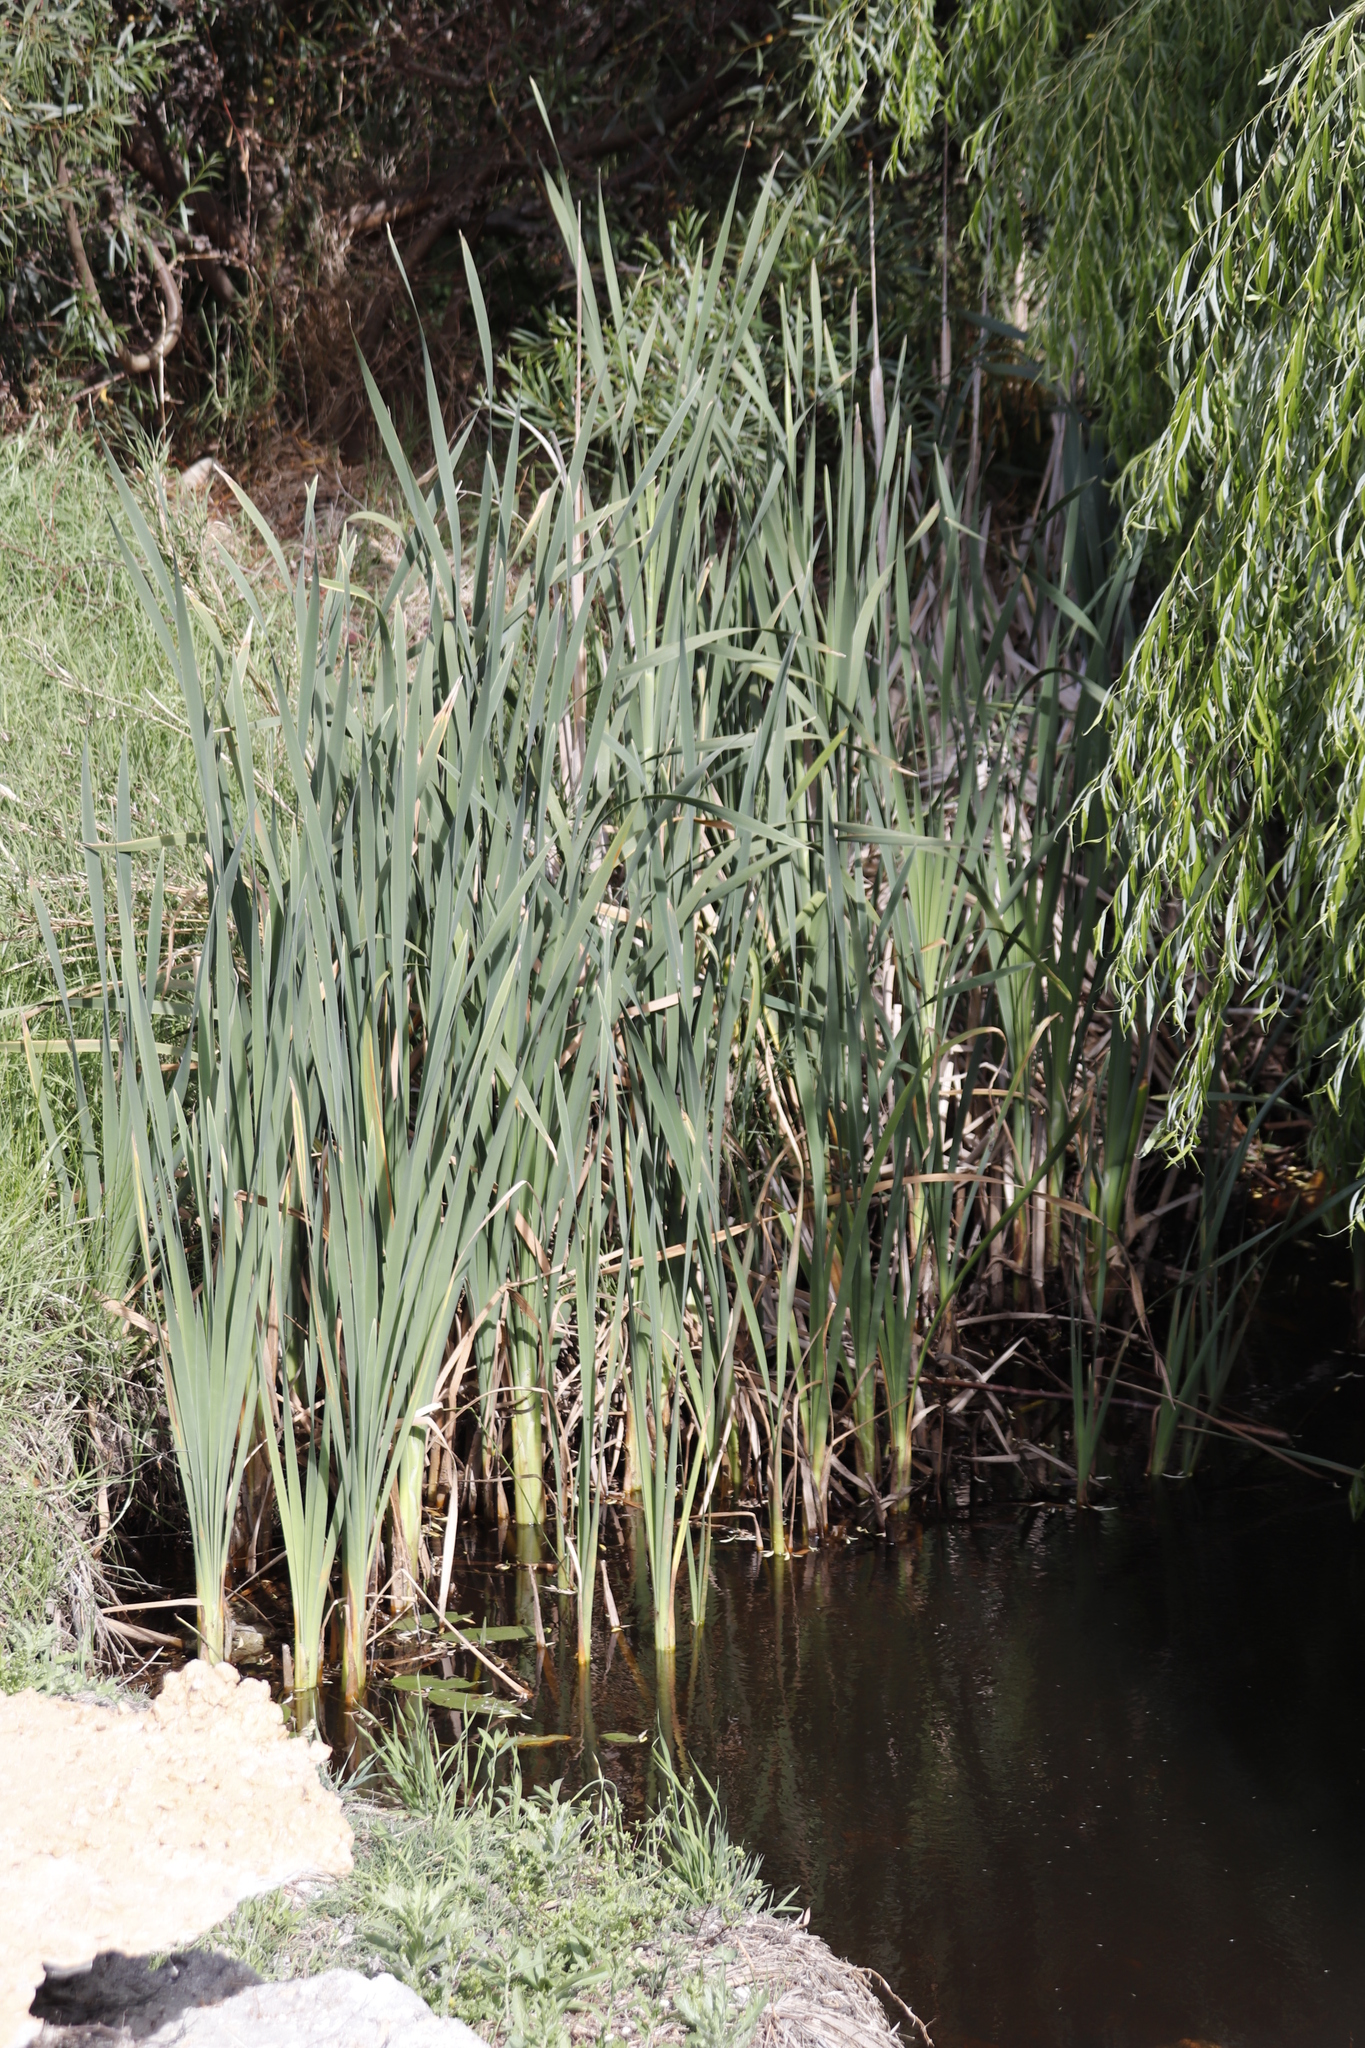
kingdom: Plantae
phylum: Tracheophyta
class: Liliopsida
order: Poales
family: Typhaceae
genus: Typha
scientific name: Typha capensis
